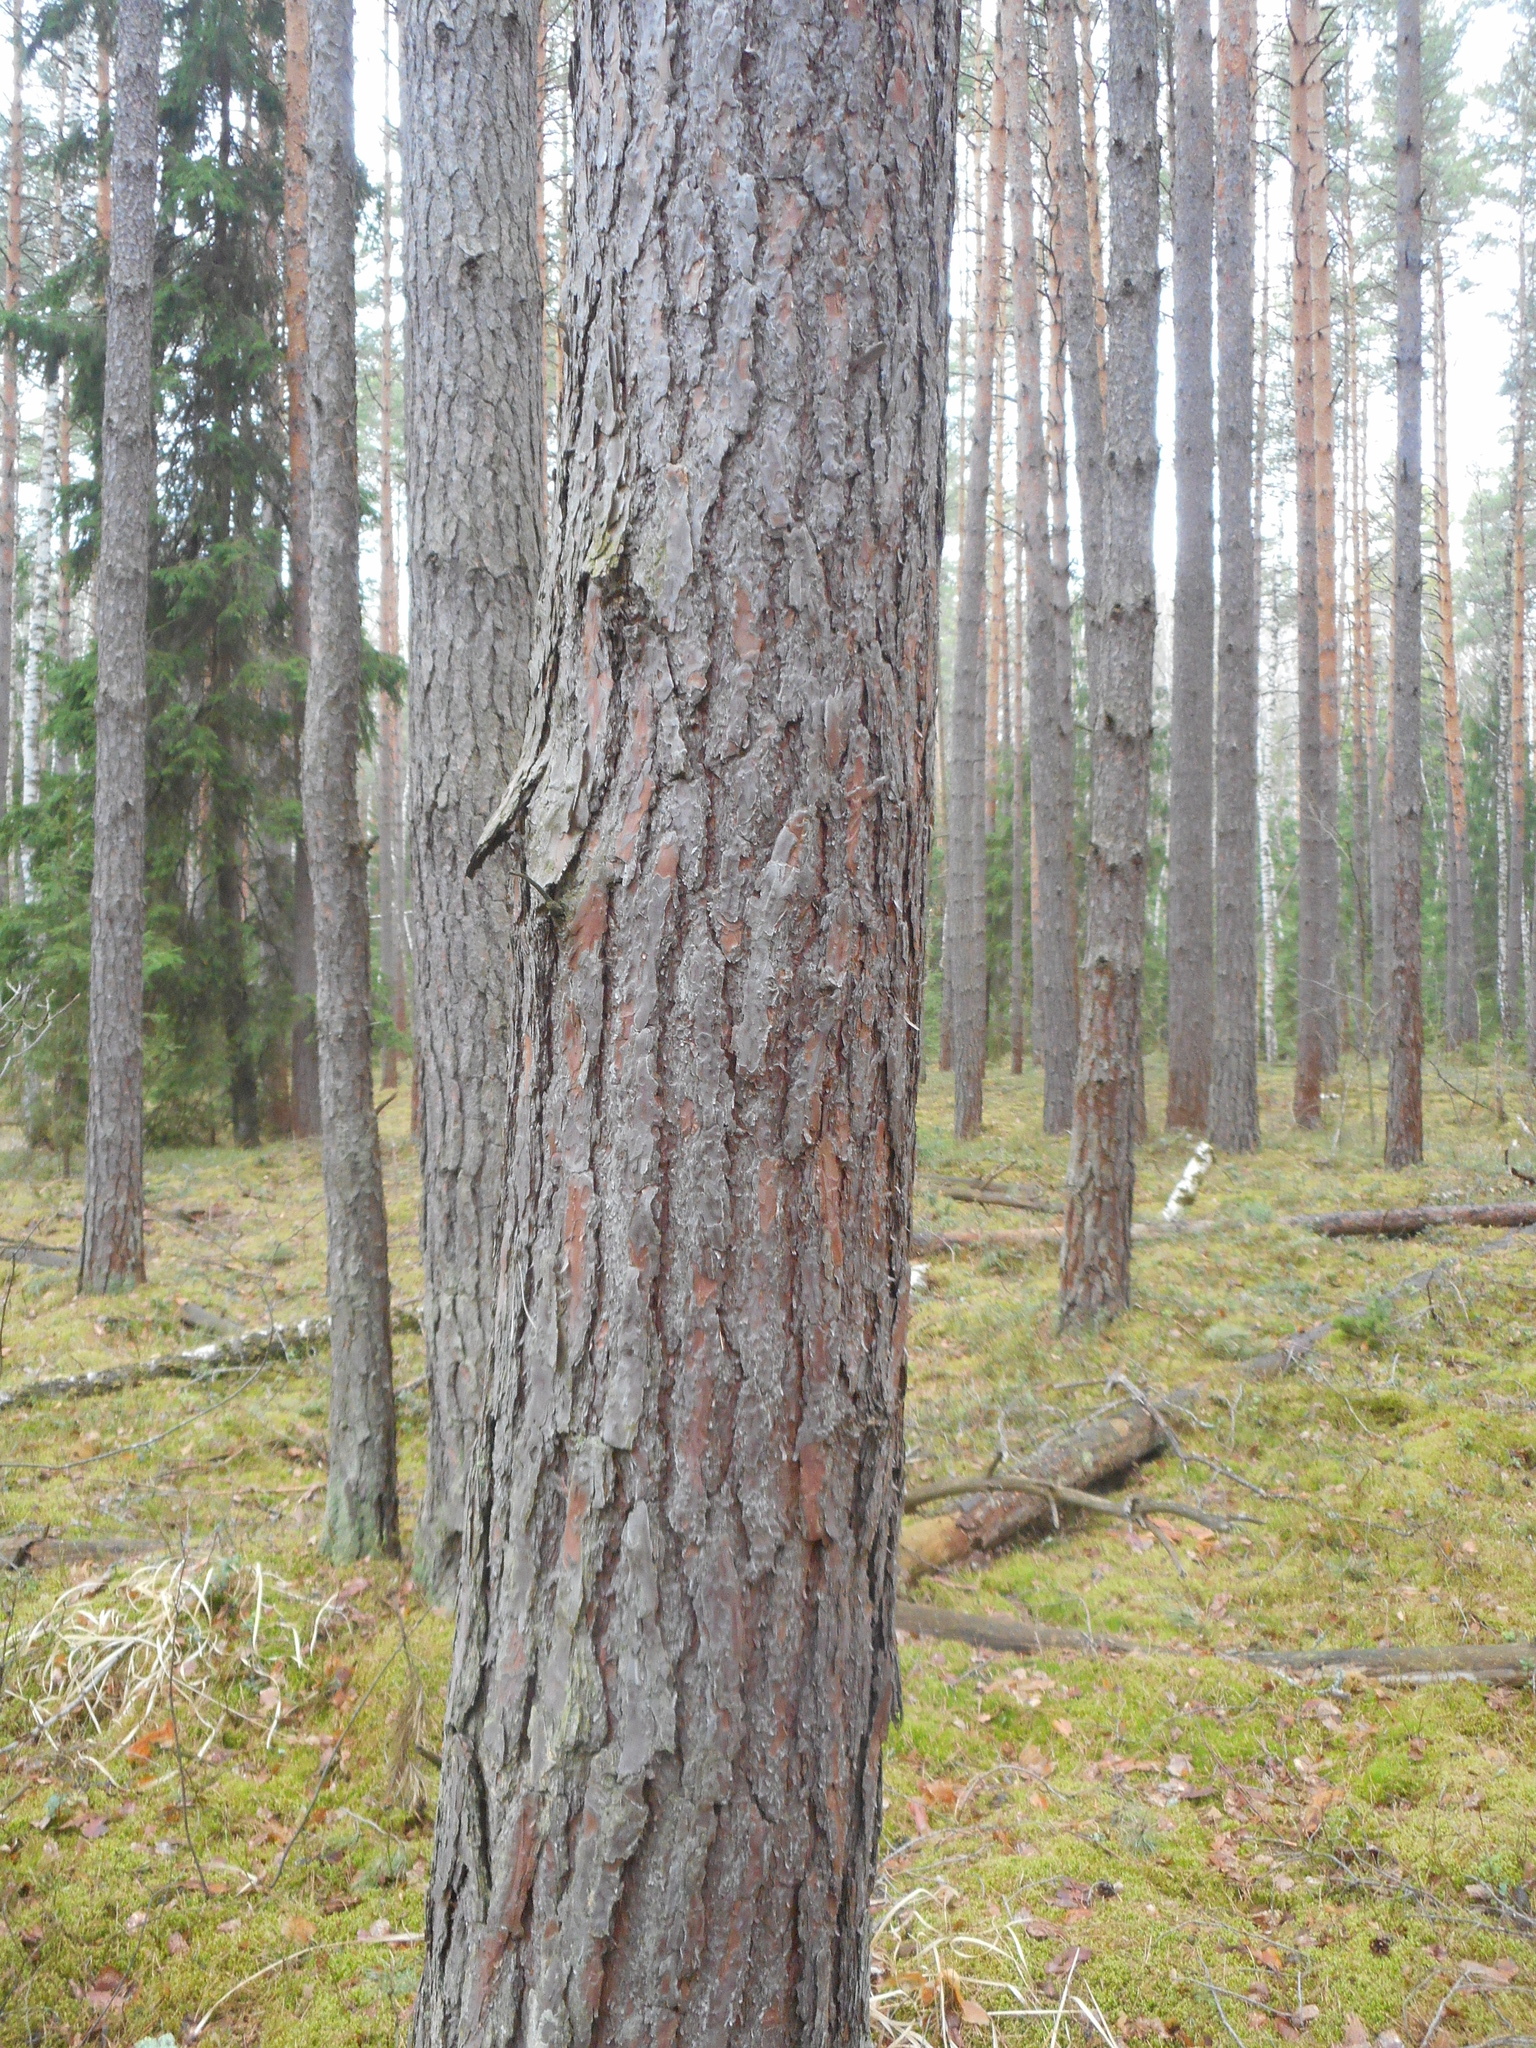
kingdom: Plantae
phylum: Tracheophyta
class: Pinopsida
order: Pinales
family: Pinaceae
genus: Pinus
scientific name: Pinus sylvestris
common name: Scots pine
